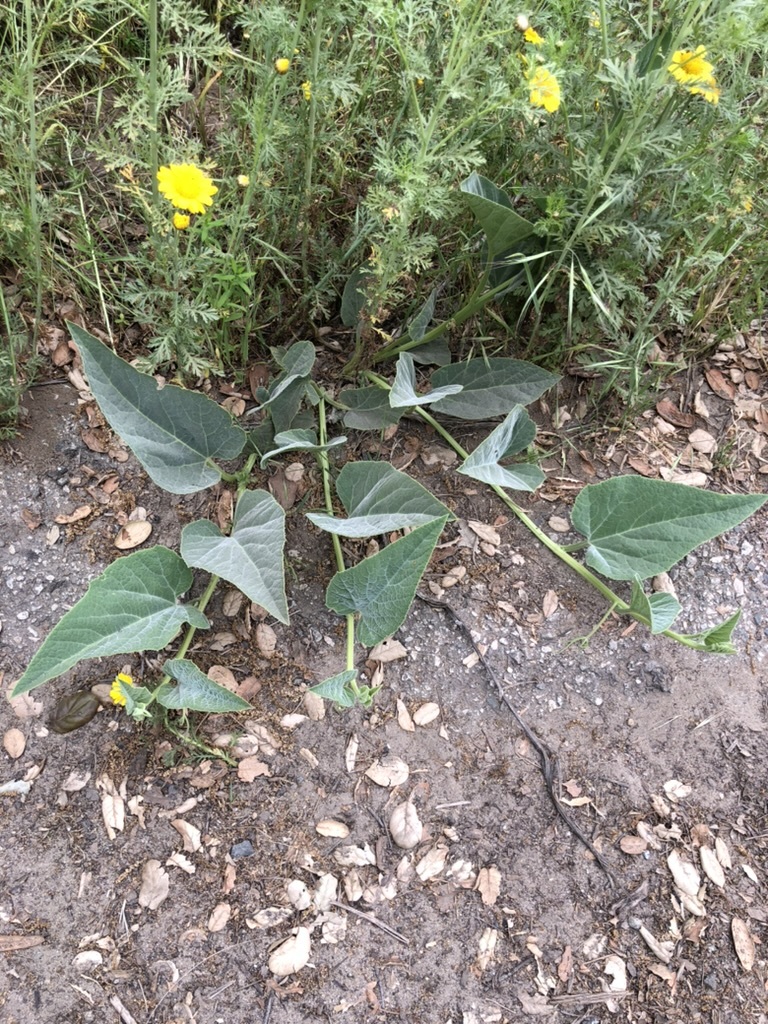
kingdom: Plantae
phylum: Tracheophyta
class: Magnoliopsida
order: Cucurbitales
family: Cucurbitaceae
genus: Cucurbita
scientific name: Cucurbita foetidissima
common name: Buffalo gourd
